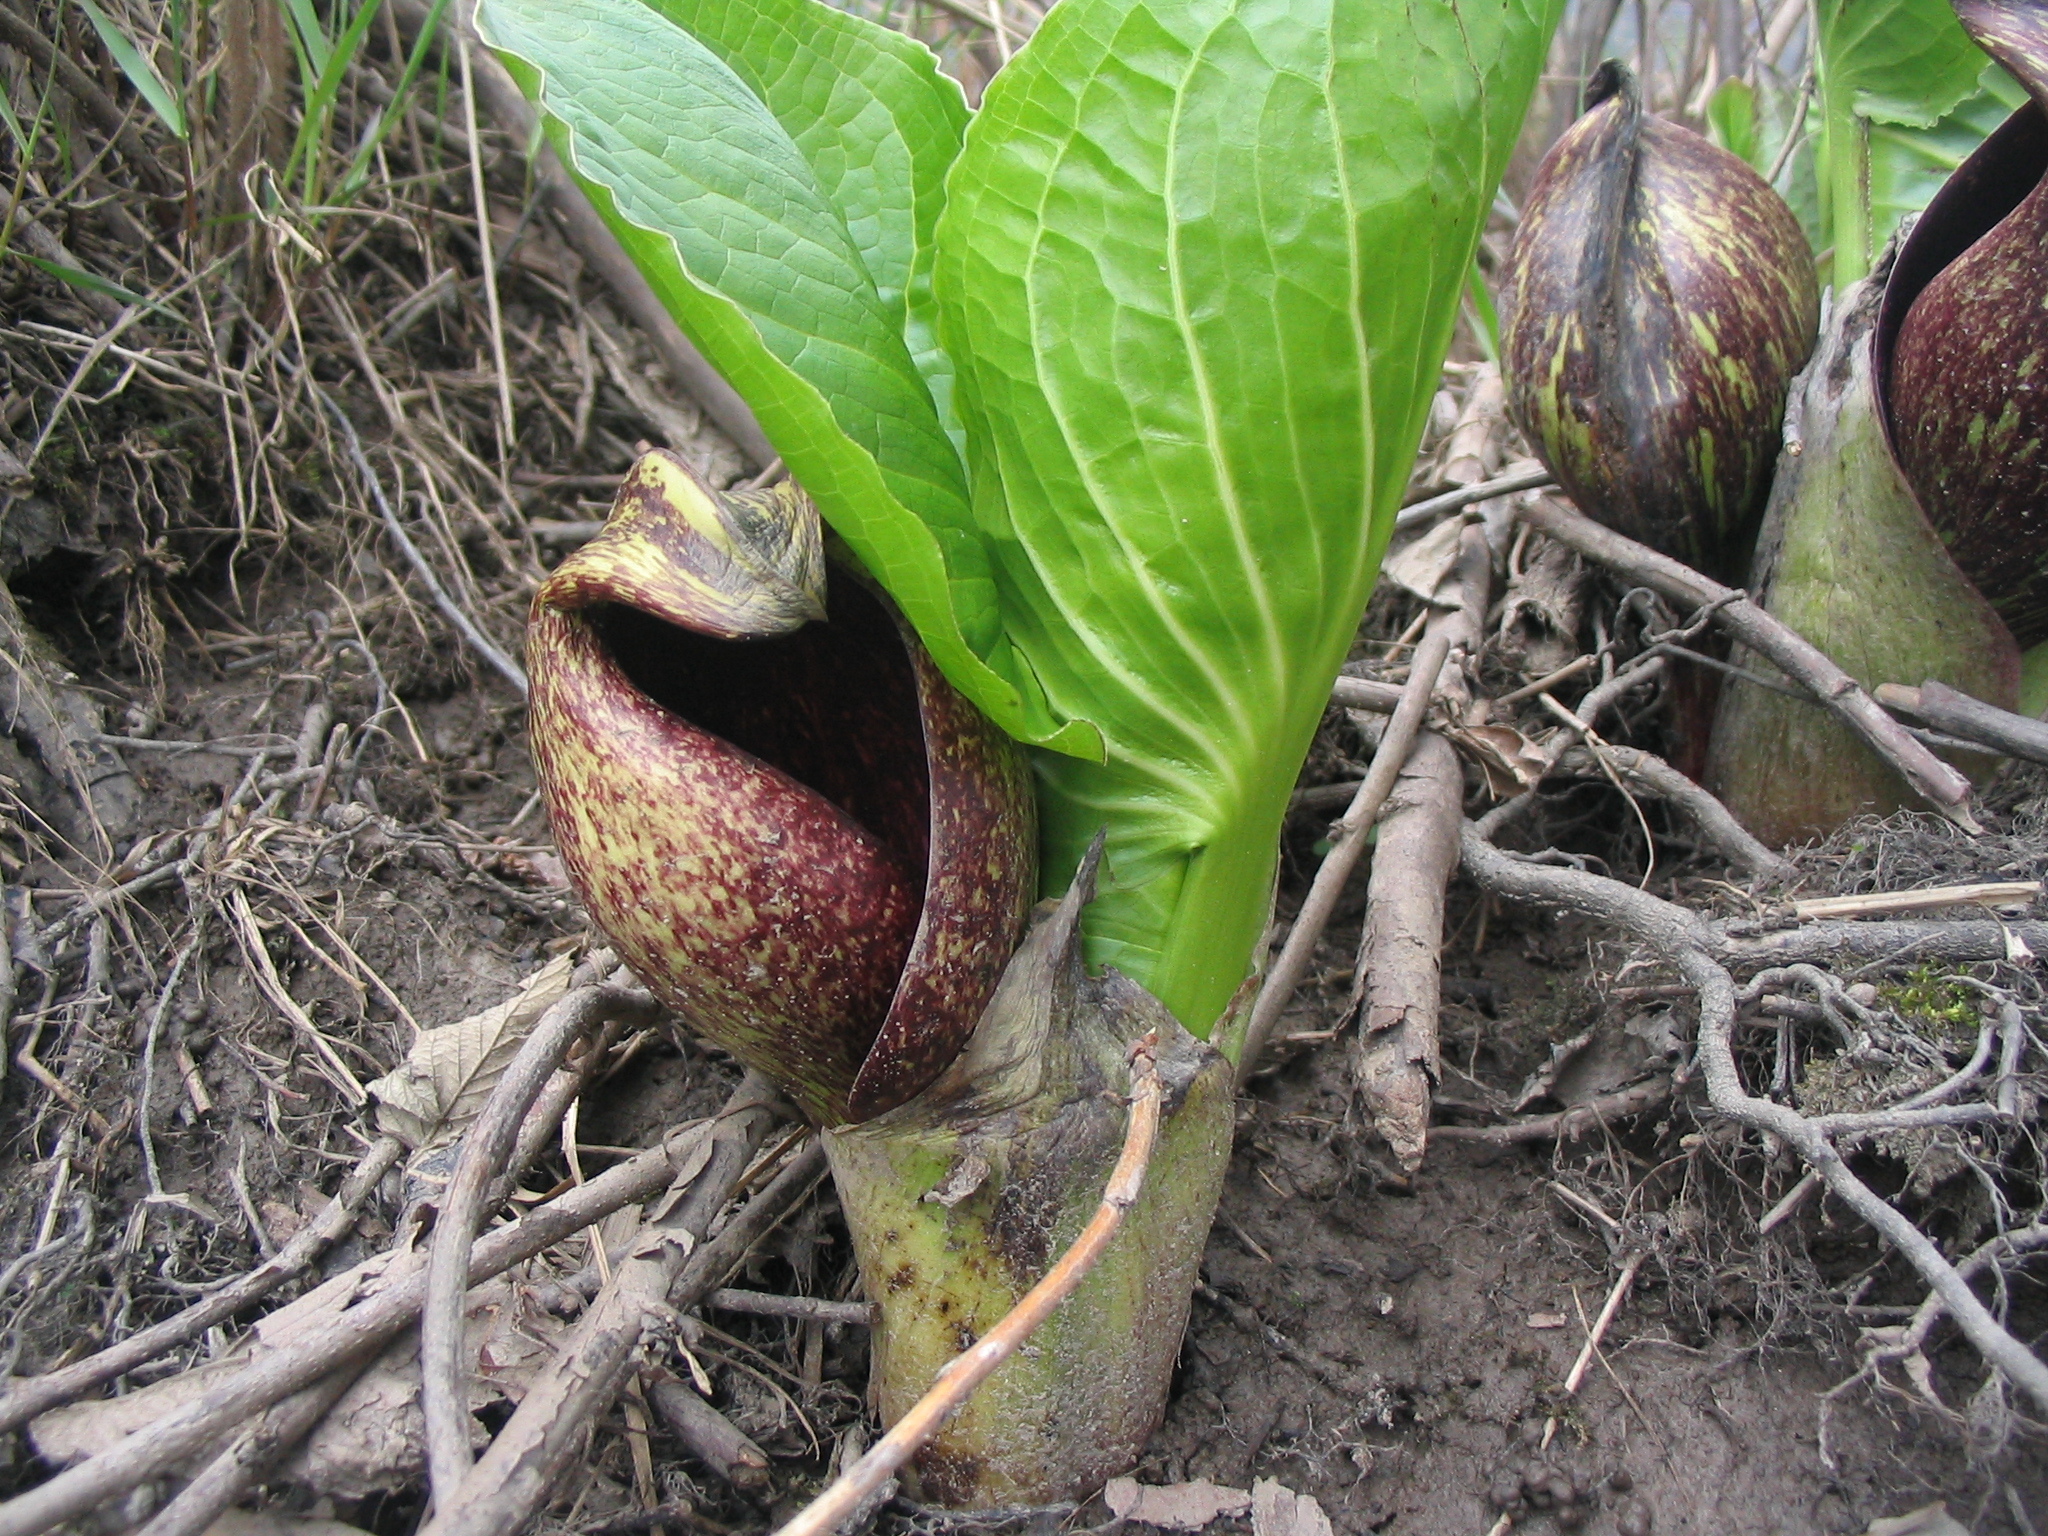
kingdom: Plantae
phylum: Tracheophyta
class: Liliopsida
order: Alismatales
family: Araceae
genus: Symplocarpus
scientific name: Symplocarpus foetidus
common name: Eastern skunk cabbage
